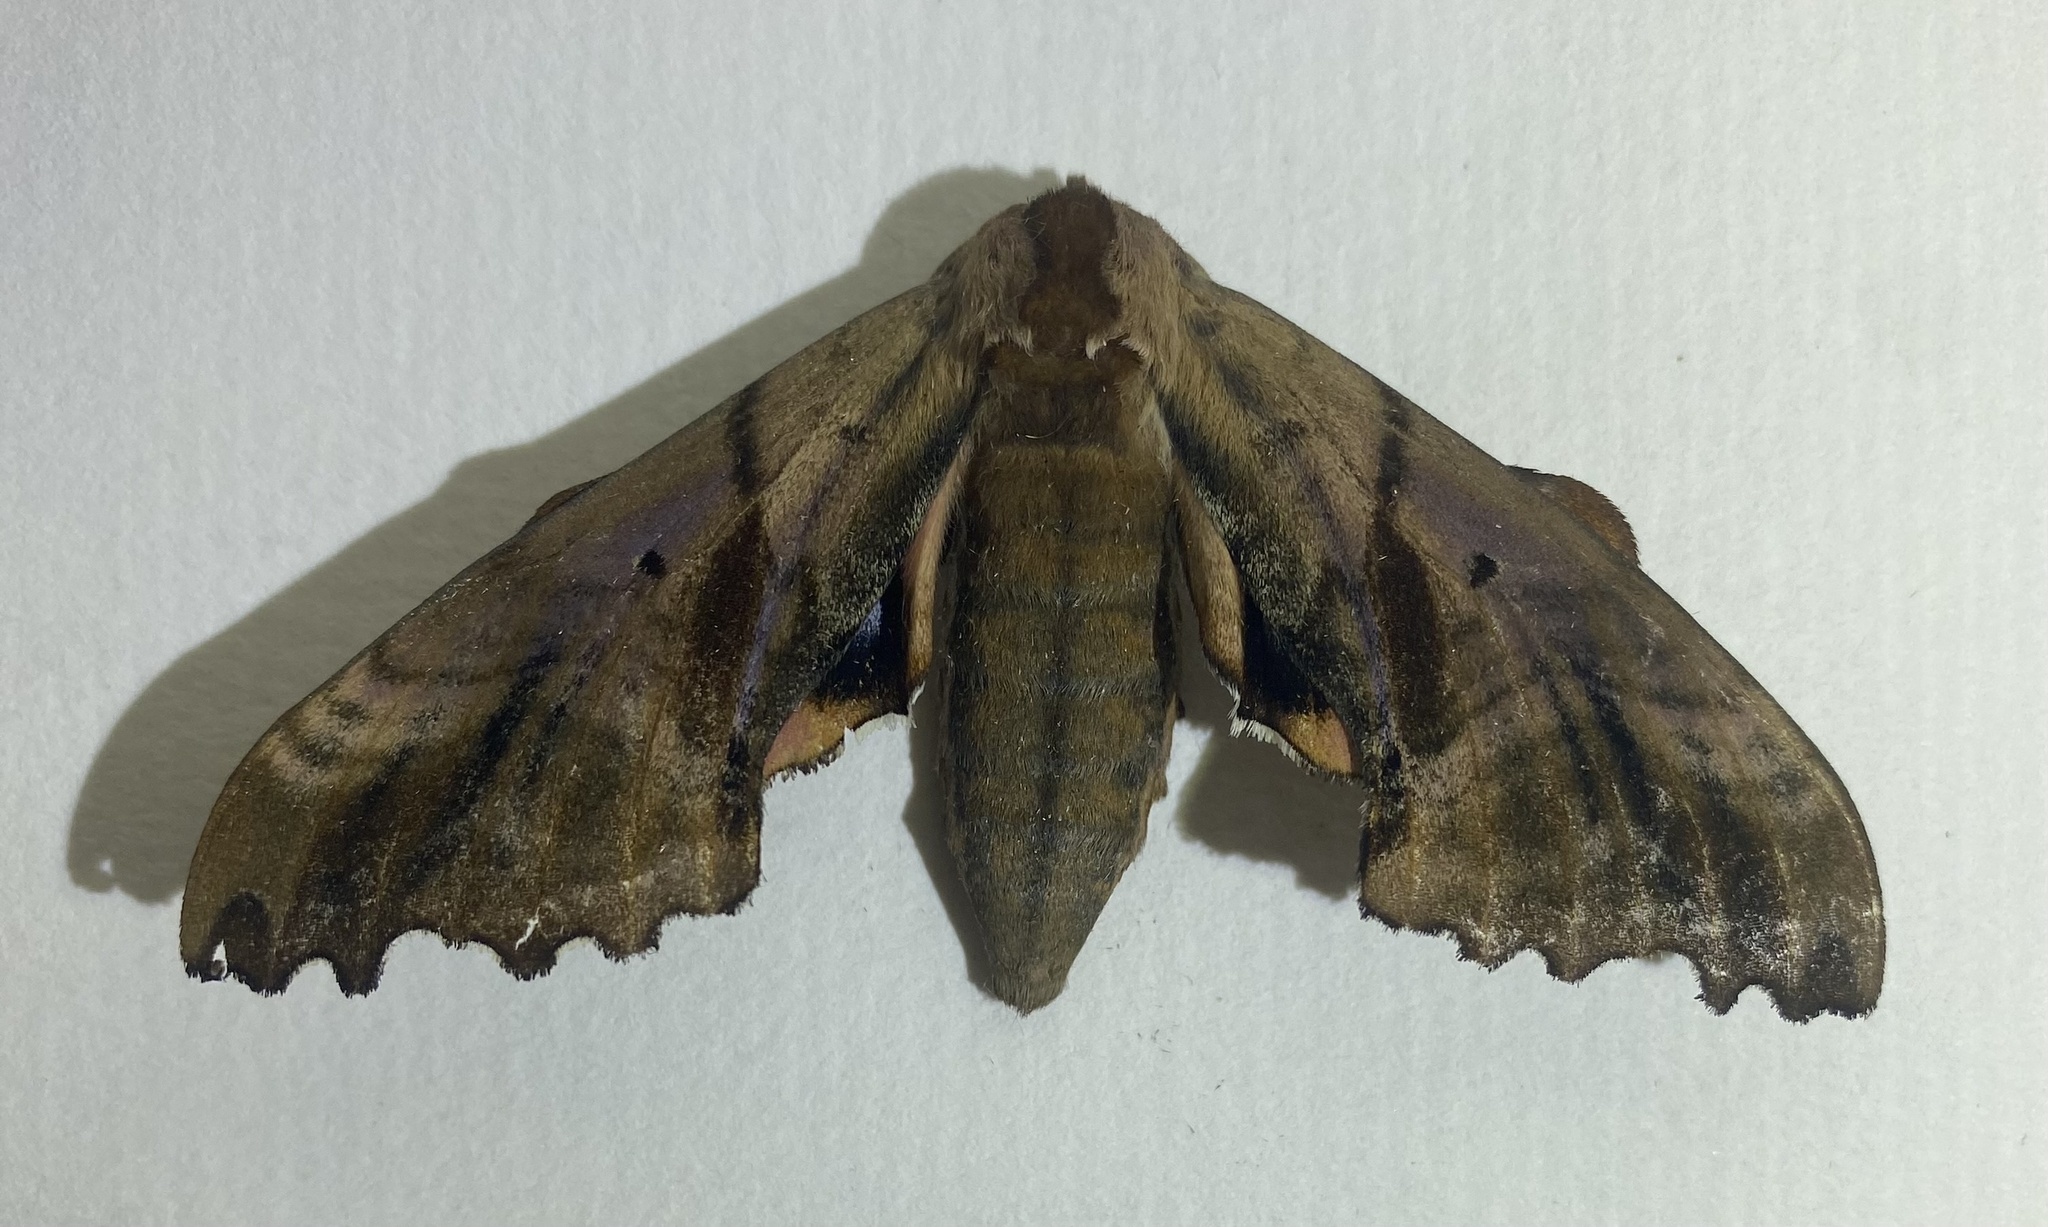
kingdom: Animalia
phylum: Arthropoda
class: Insecta
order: Lepidoptera
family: Sphingidae
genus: Paonias
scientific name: Paonias excaecata
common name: Blind-eyed sphinx
